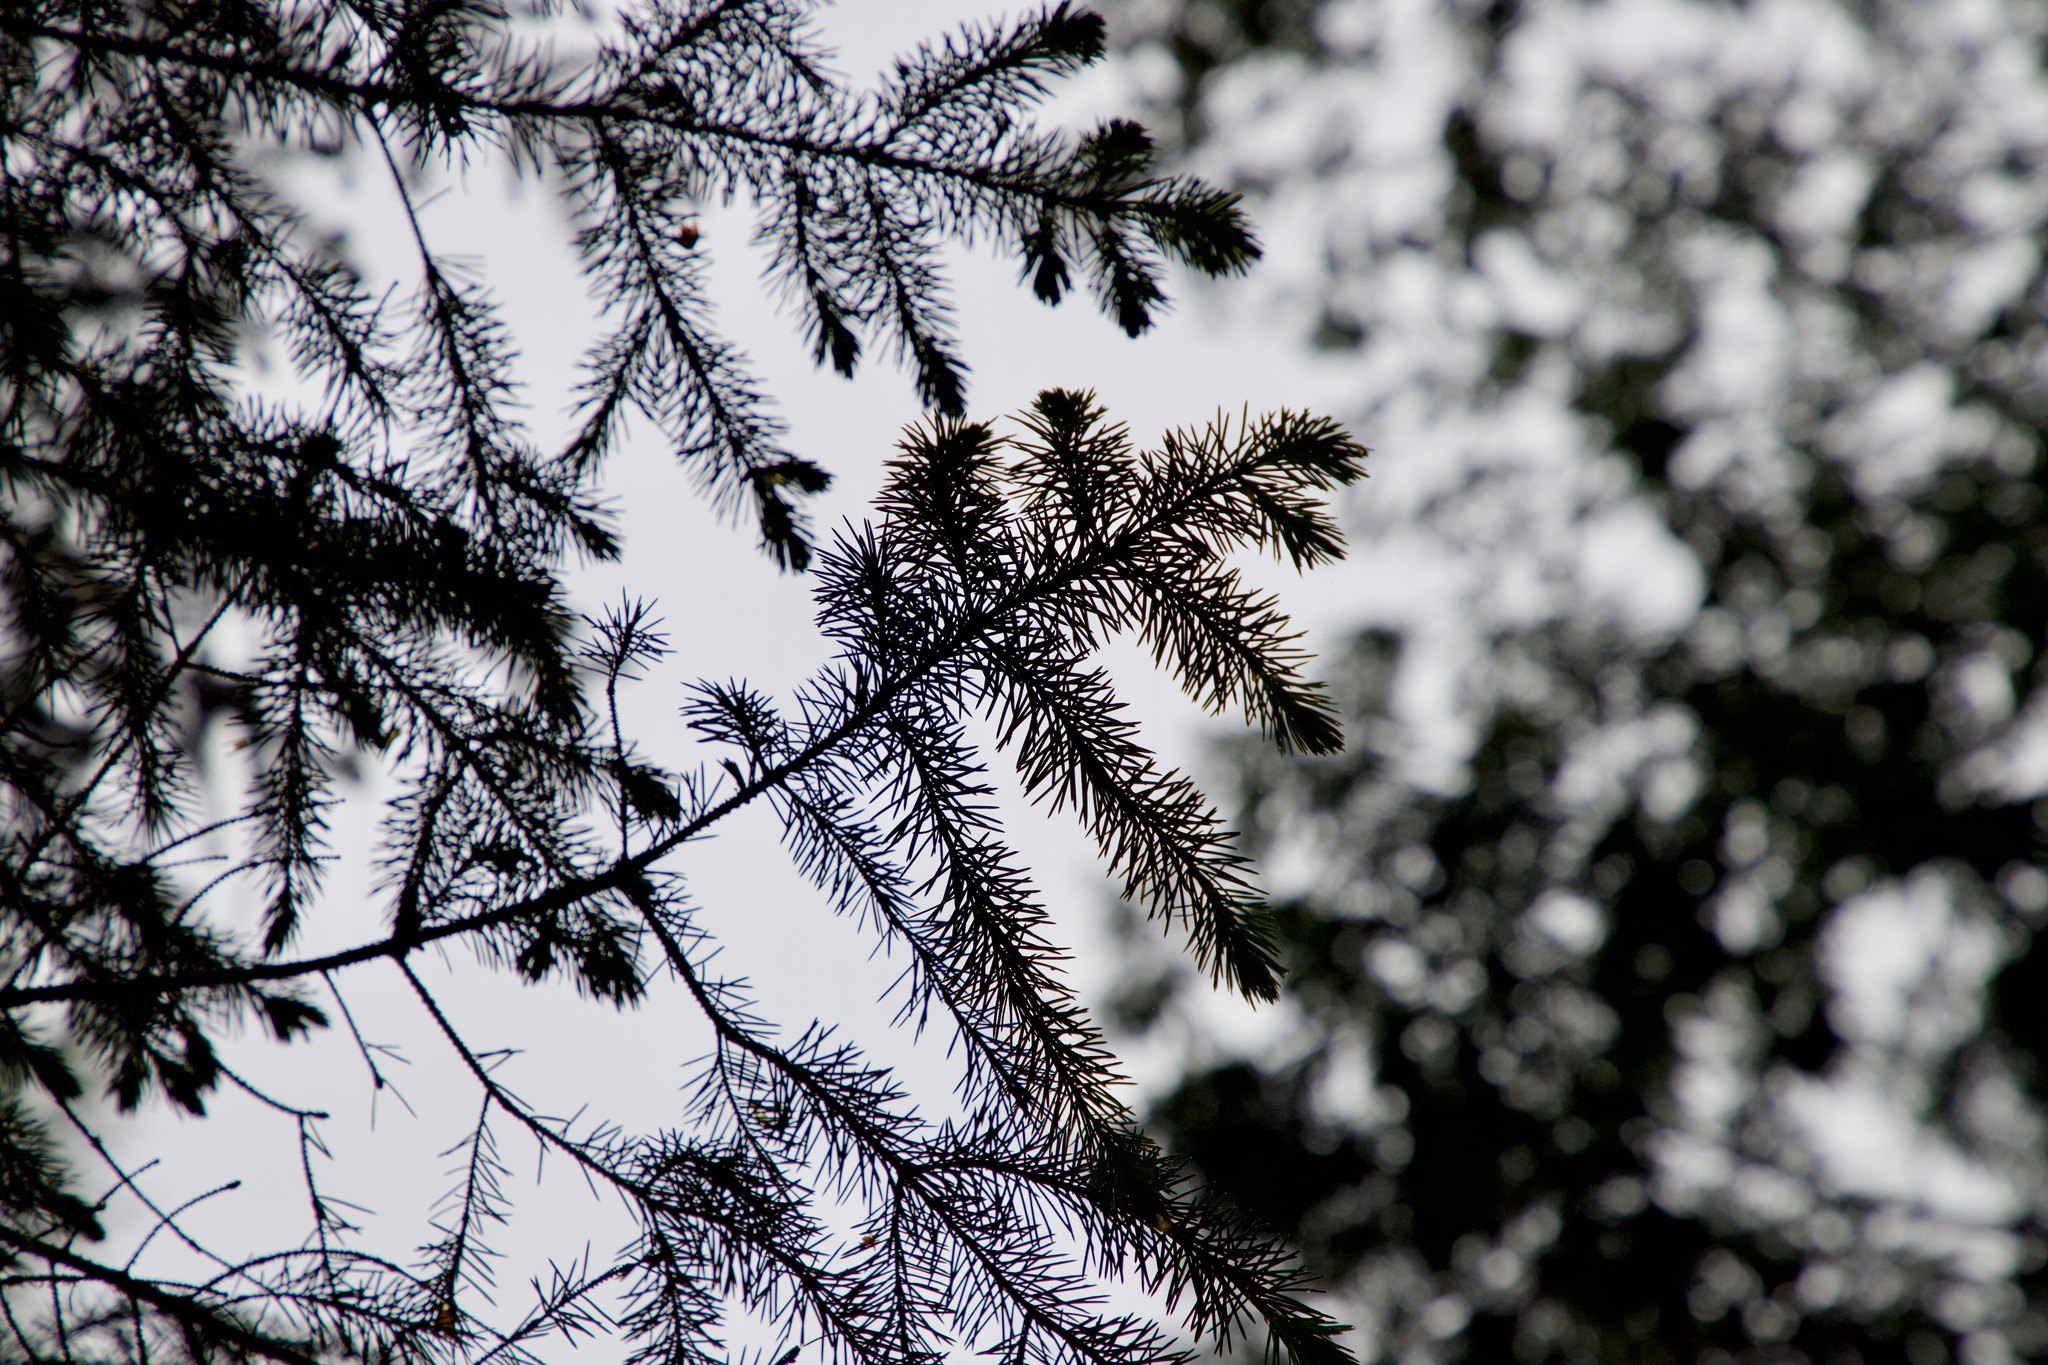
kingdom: Plantae
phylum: Tracheophyta
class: Pinopsida
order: Pinales
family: Pinaceae
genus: Picea
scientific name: Picea sitchensis
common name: Sitka spruce
